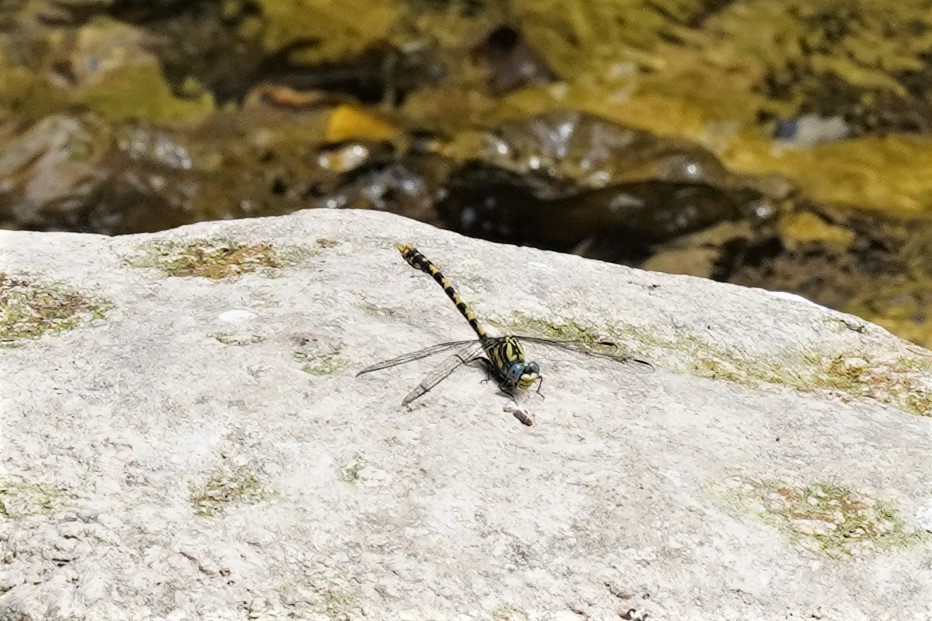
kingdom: Animalia
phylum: Arthropoda
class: Insecta
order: Odonata
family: Gomphidae
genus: Onychogomphus
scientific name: Onychogomphus uncatus
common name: Large pincertail
